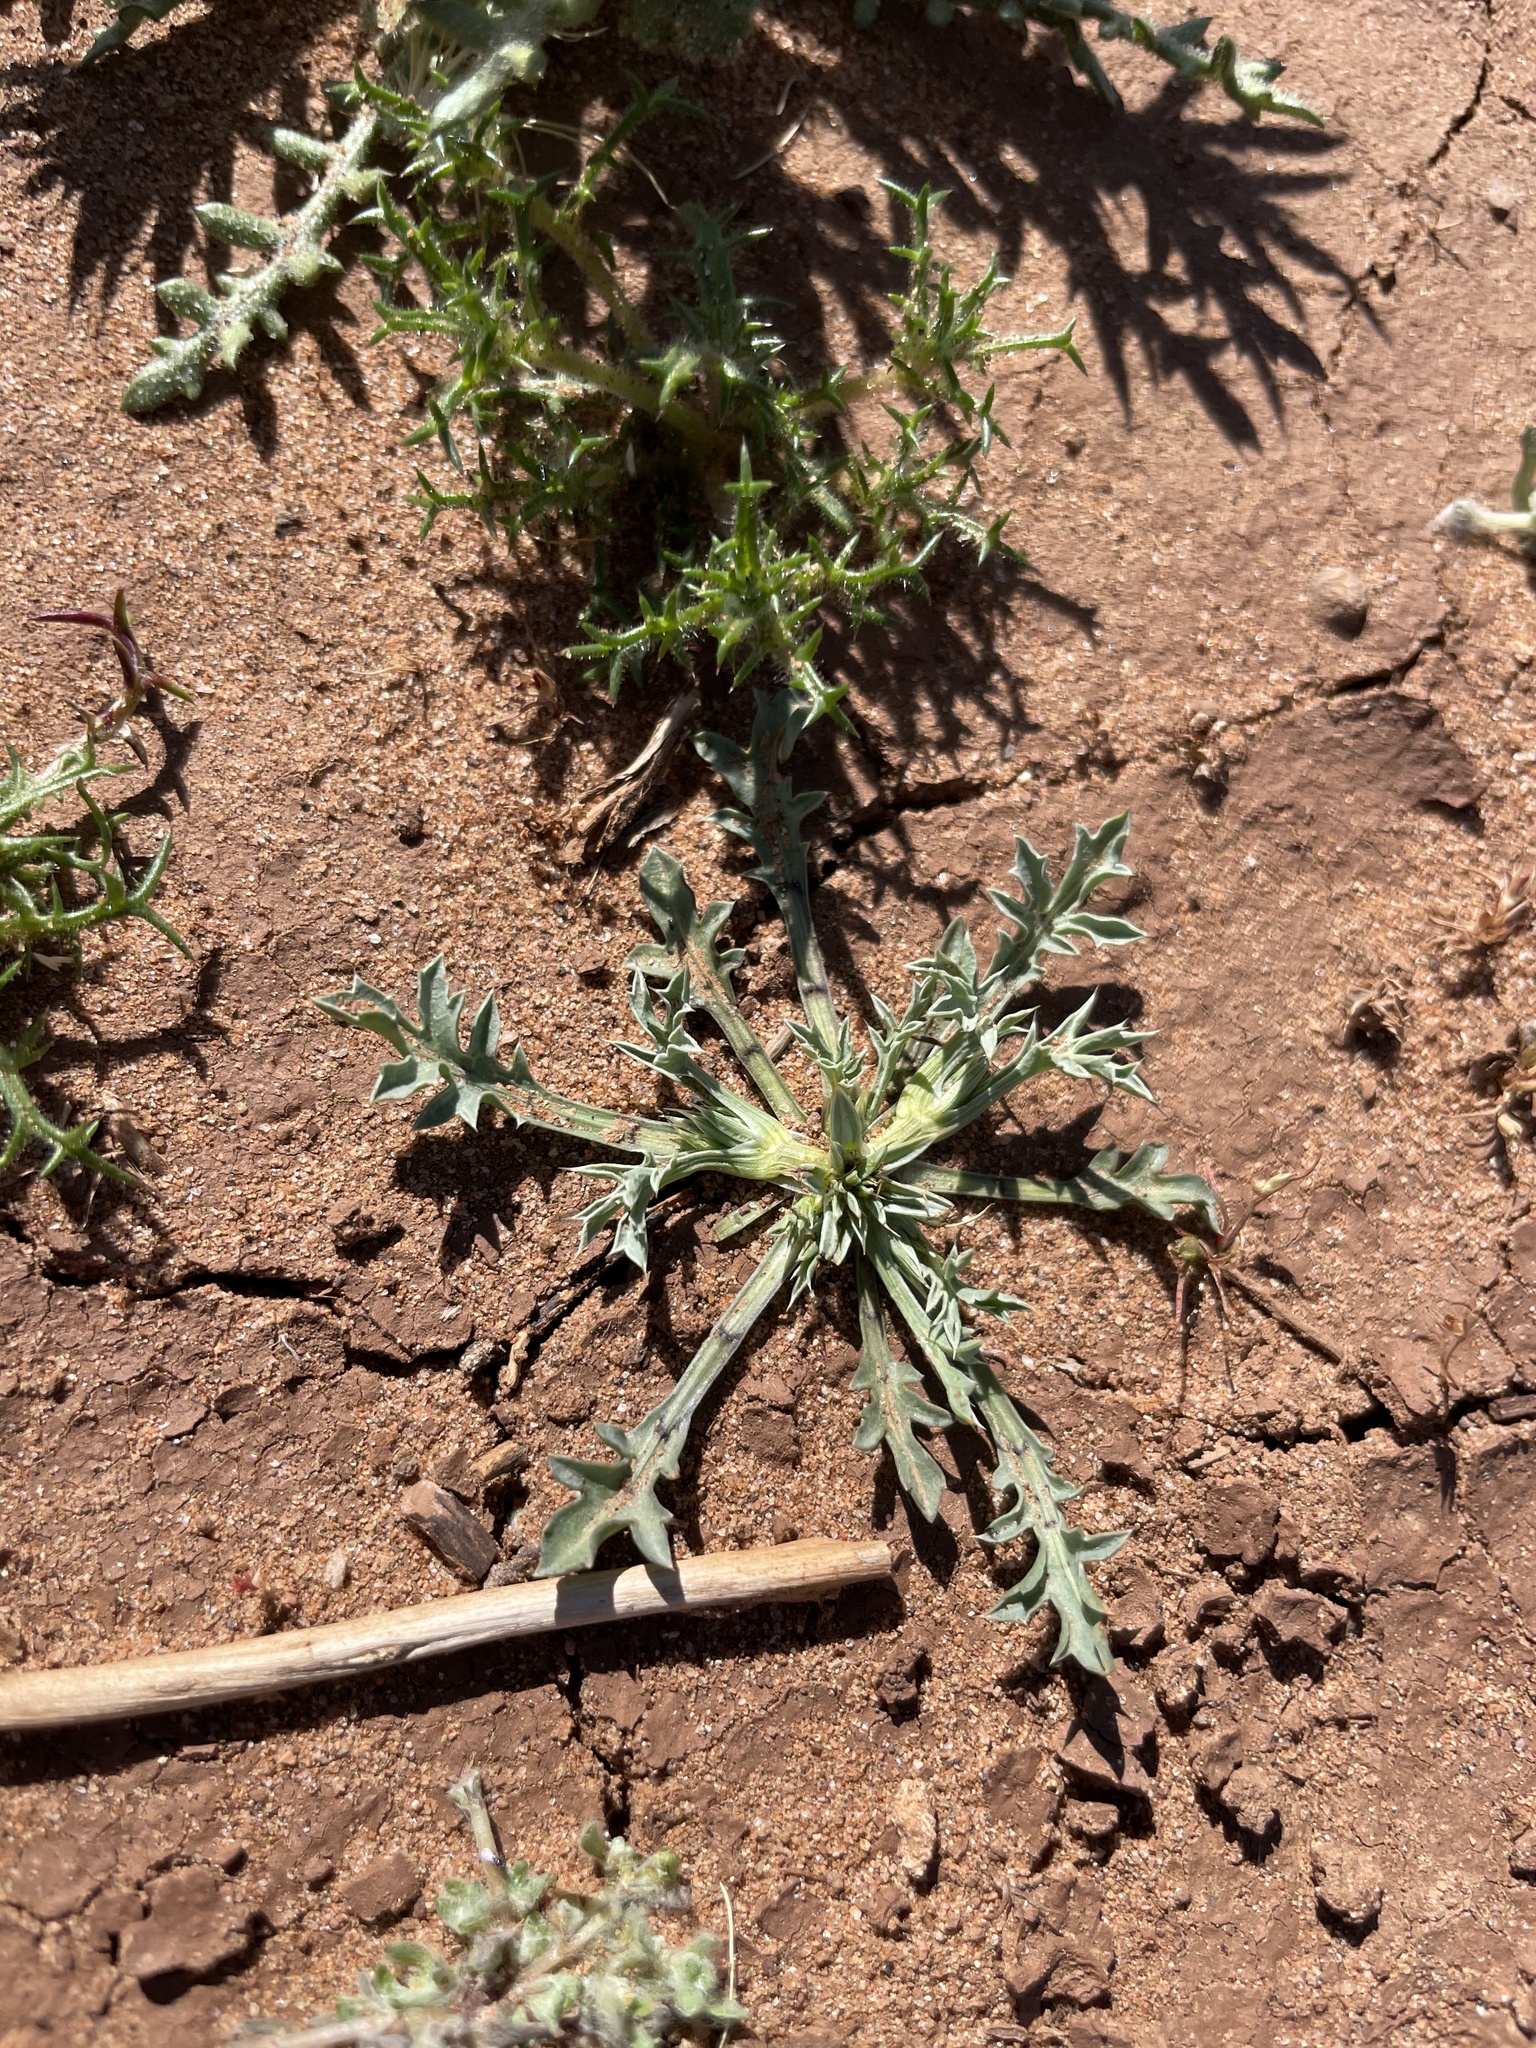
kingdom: Plantae
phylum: Tracheophyta
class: Magnoliopsida
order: Apiales
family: Apiaceae
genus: Eryngium
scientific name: Eryngium aristulatum
